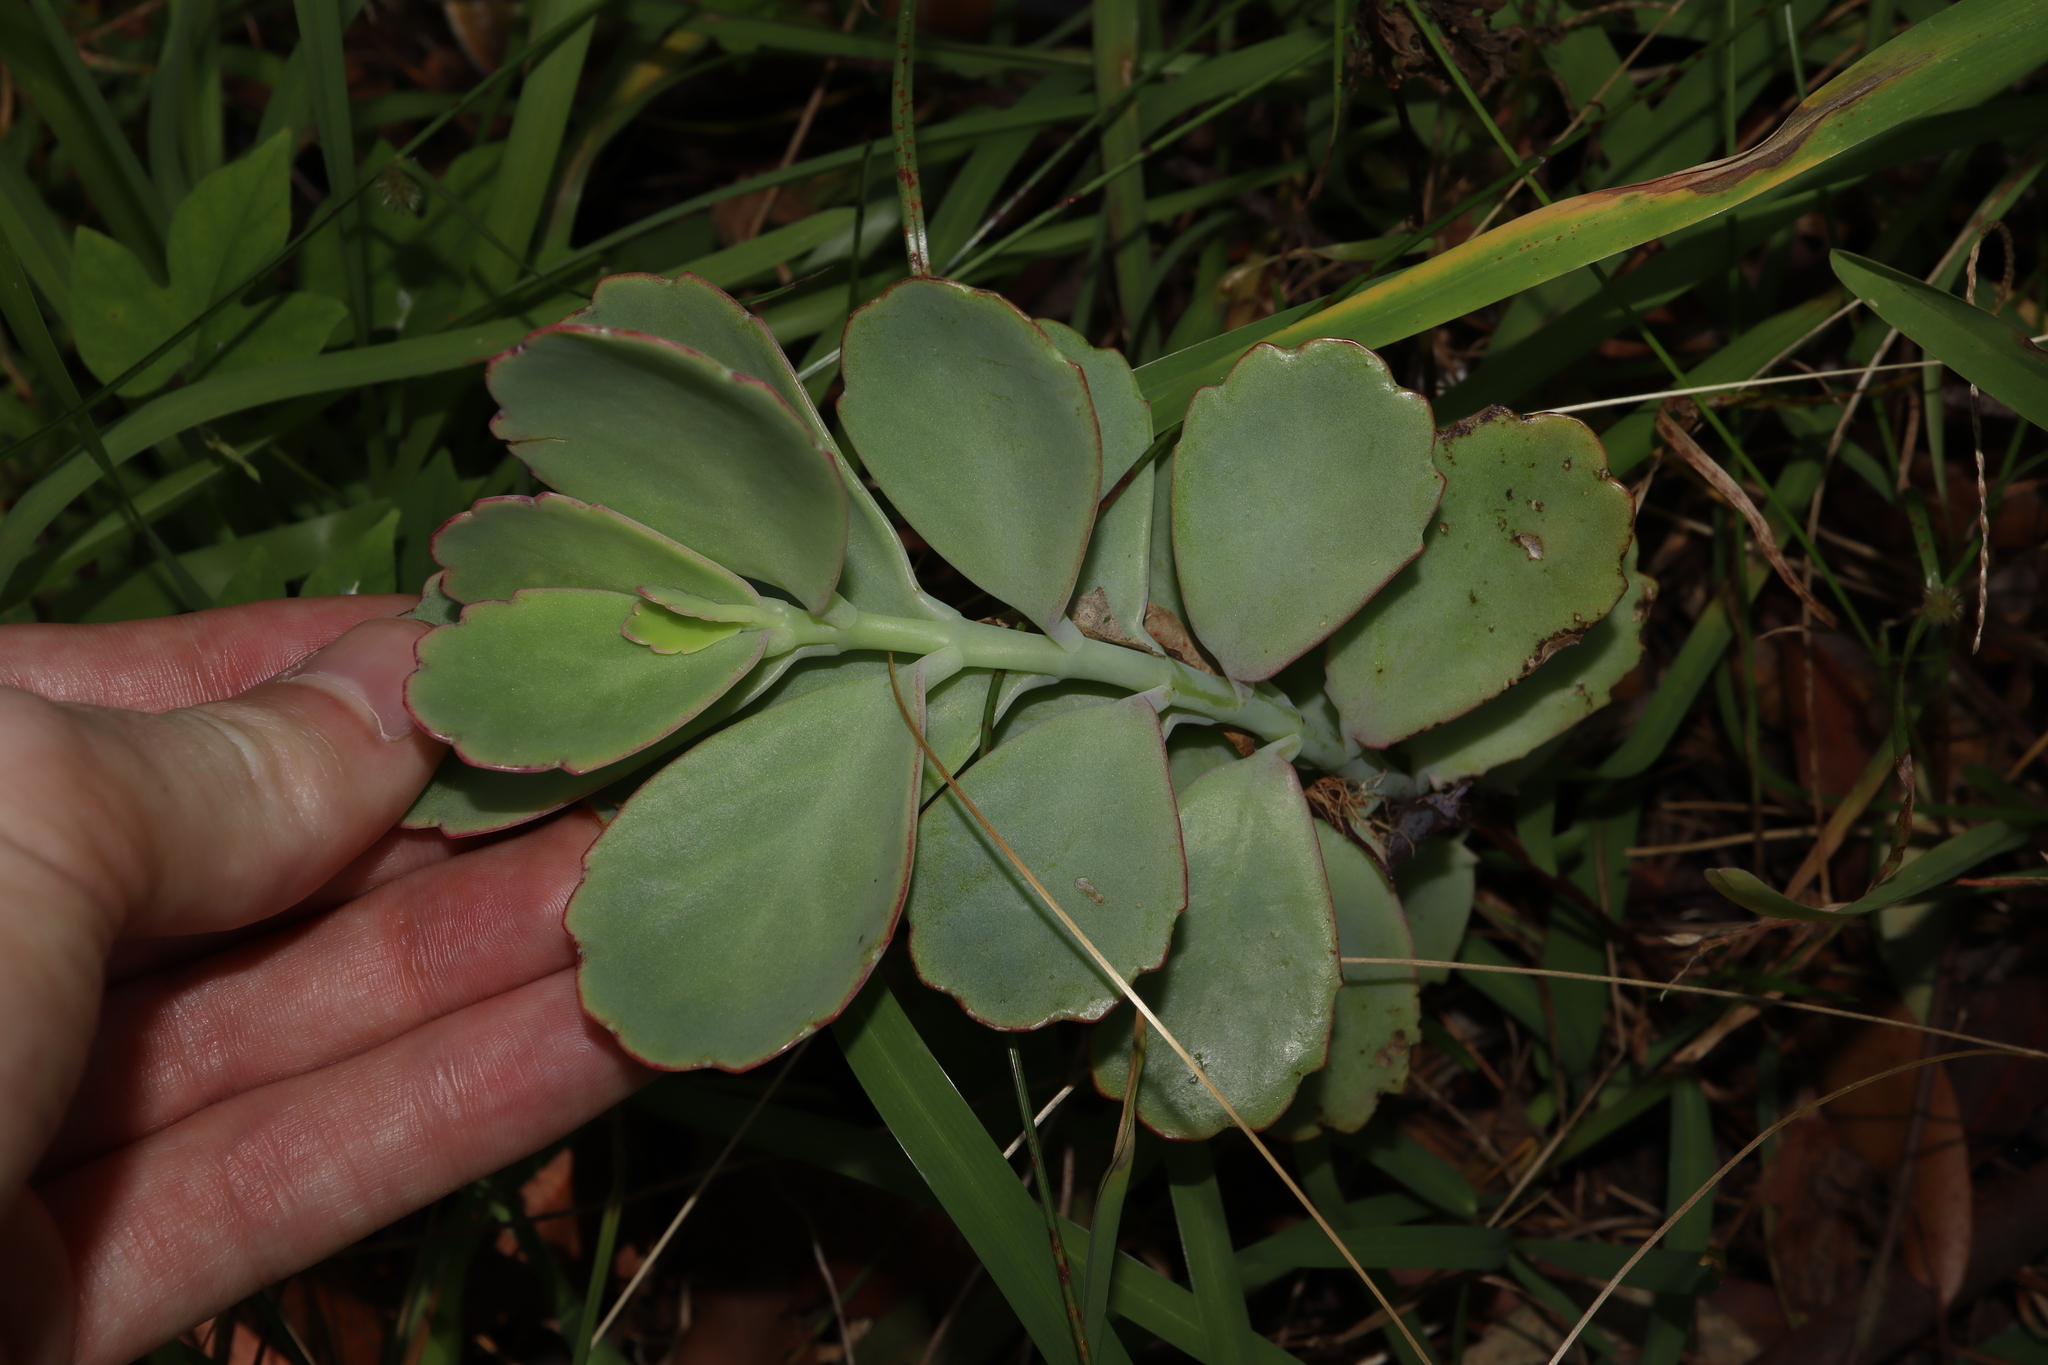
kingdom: Plantae
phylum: Tracheophyta
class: Magnoliopsida
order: Saxifragales
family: Crassulaceae
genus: Kalanchoe
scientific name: Kalanchoe fedtschenkoi
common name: Lavender scallops
